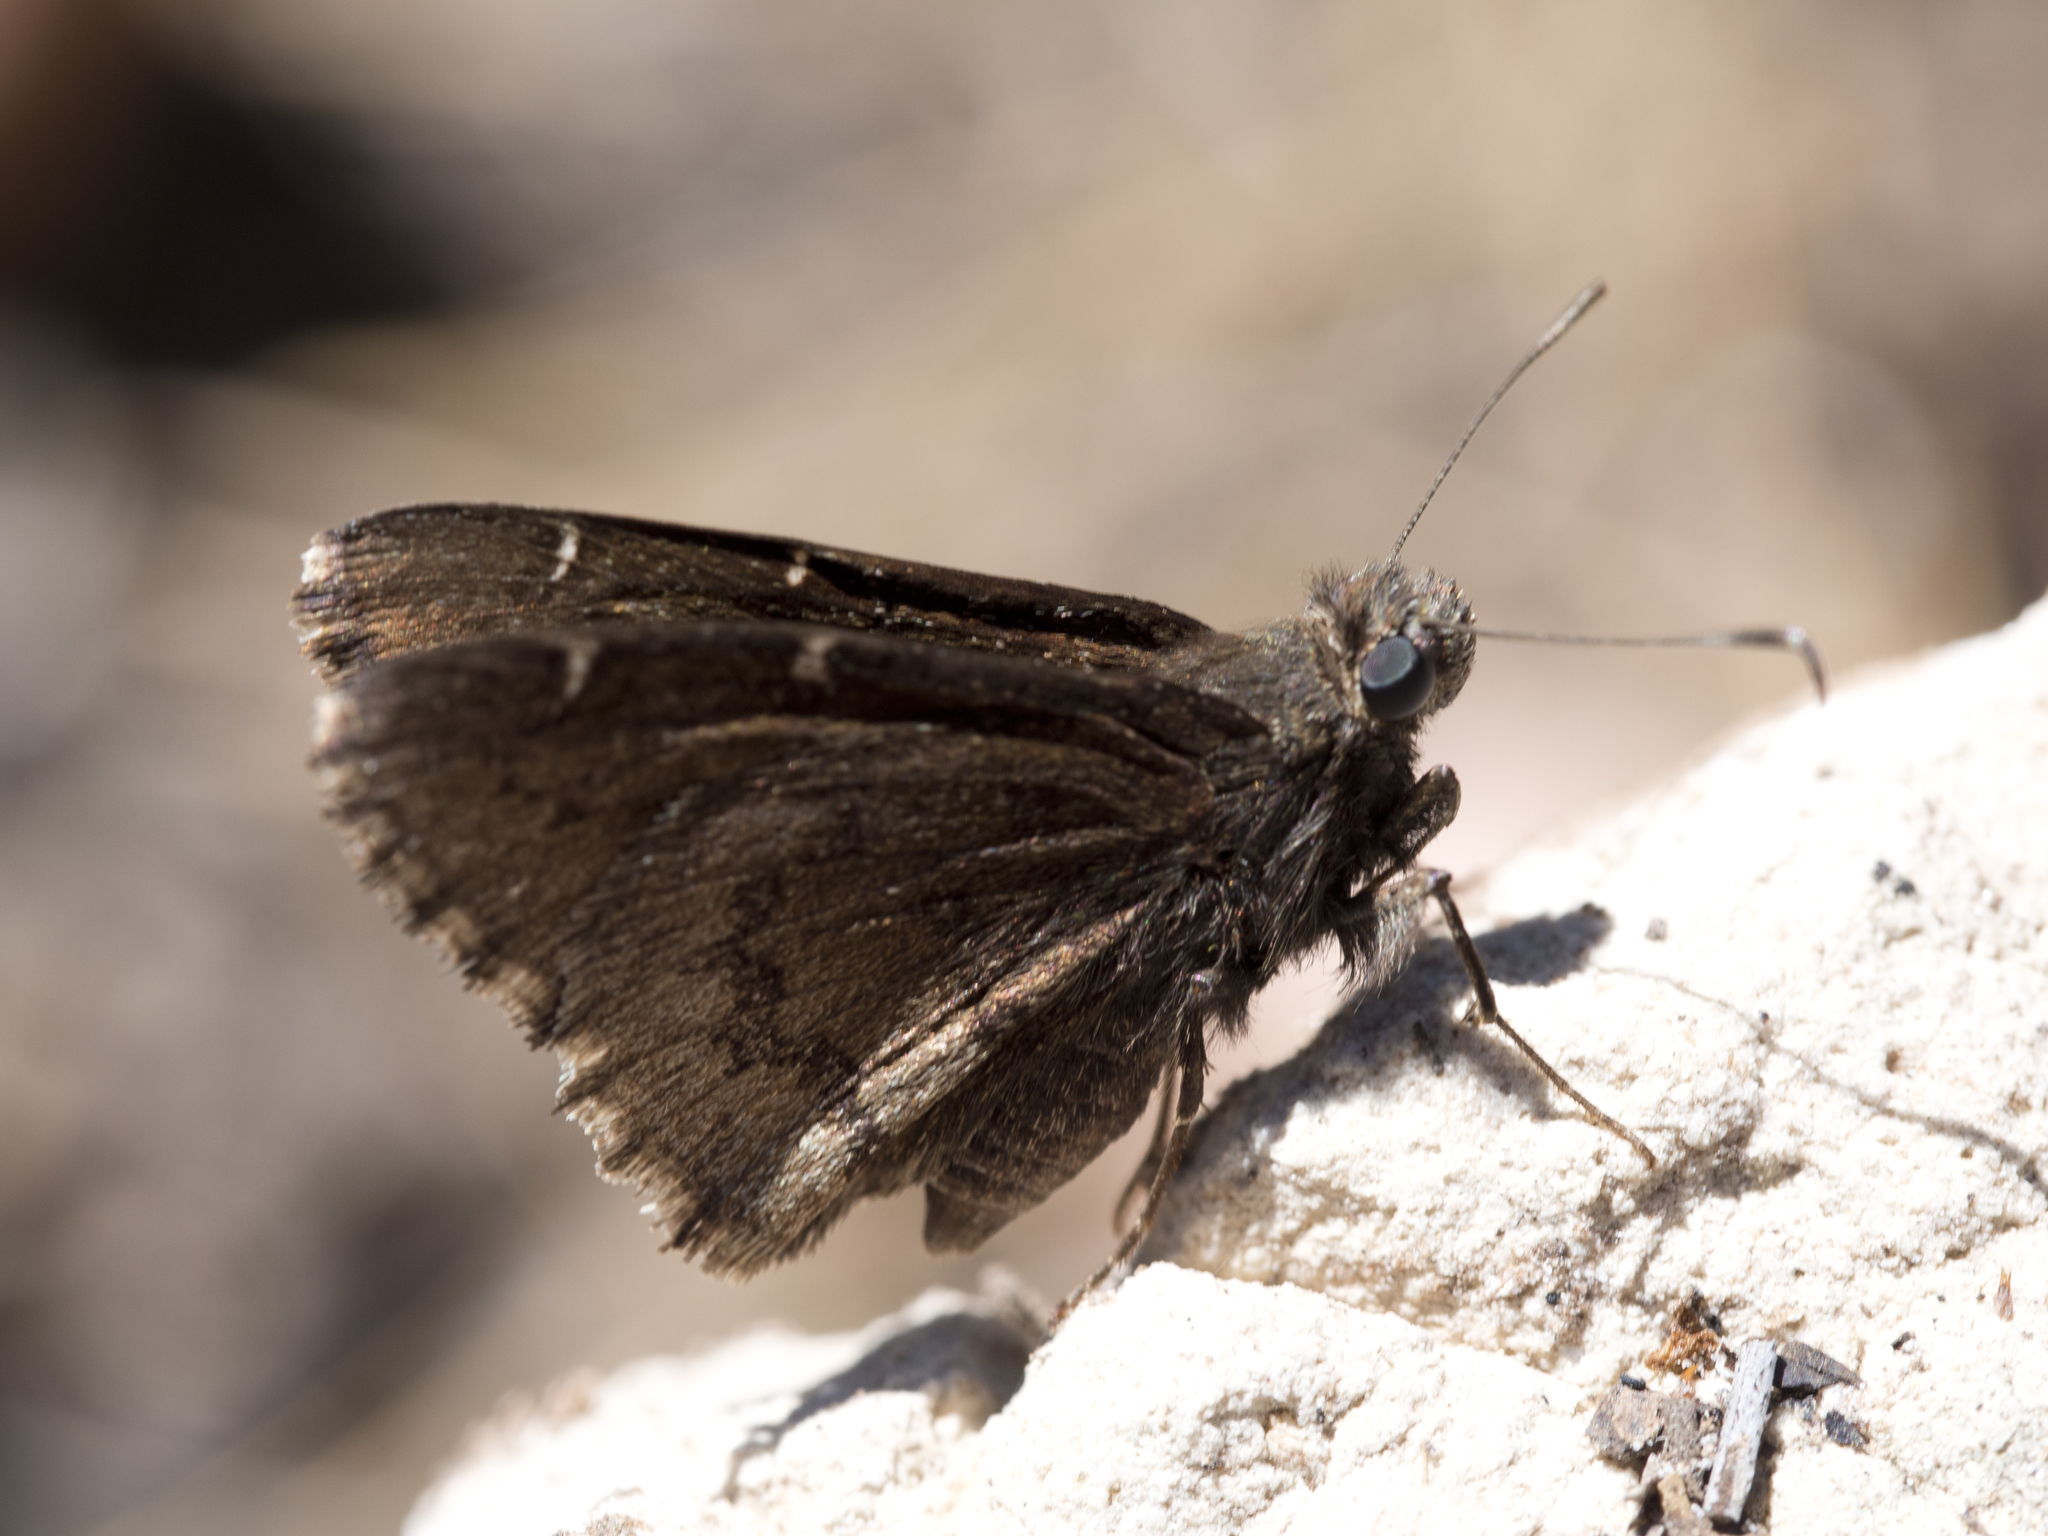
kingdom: Animalia
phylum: Arthropoda
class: Insecta
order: Lepidoptera
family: Hesperiidae
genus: Thorybes
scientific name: Thorybes pylades
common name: Northern cloudywing
